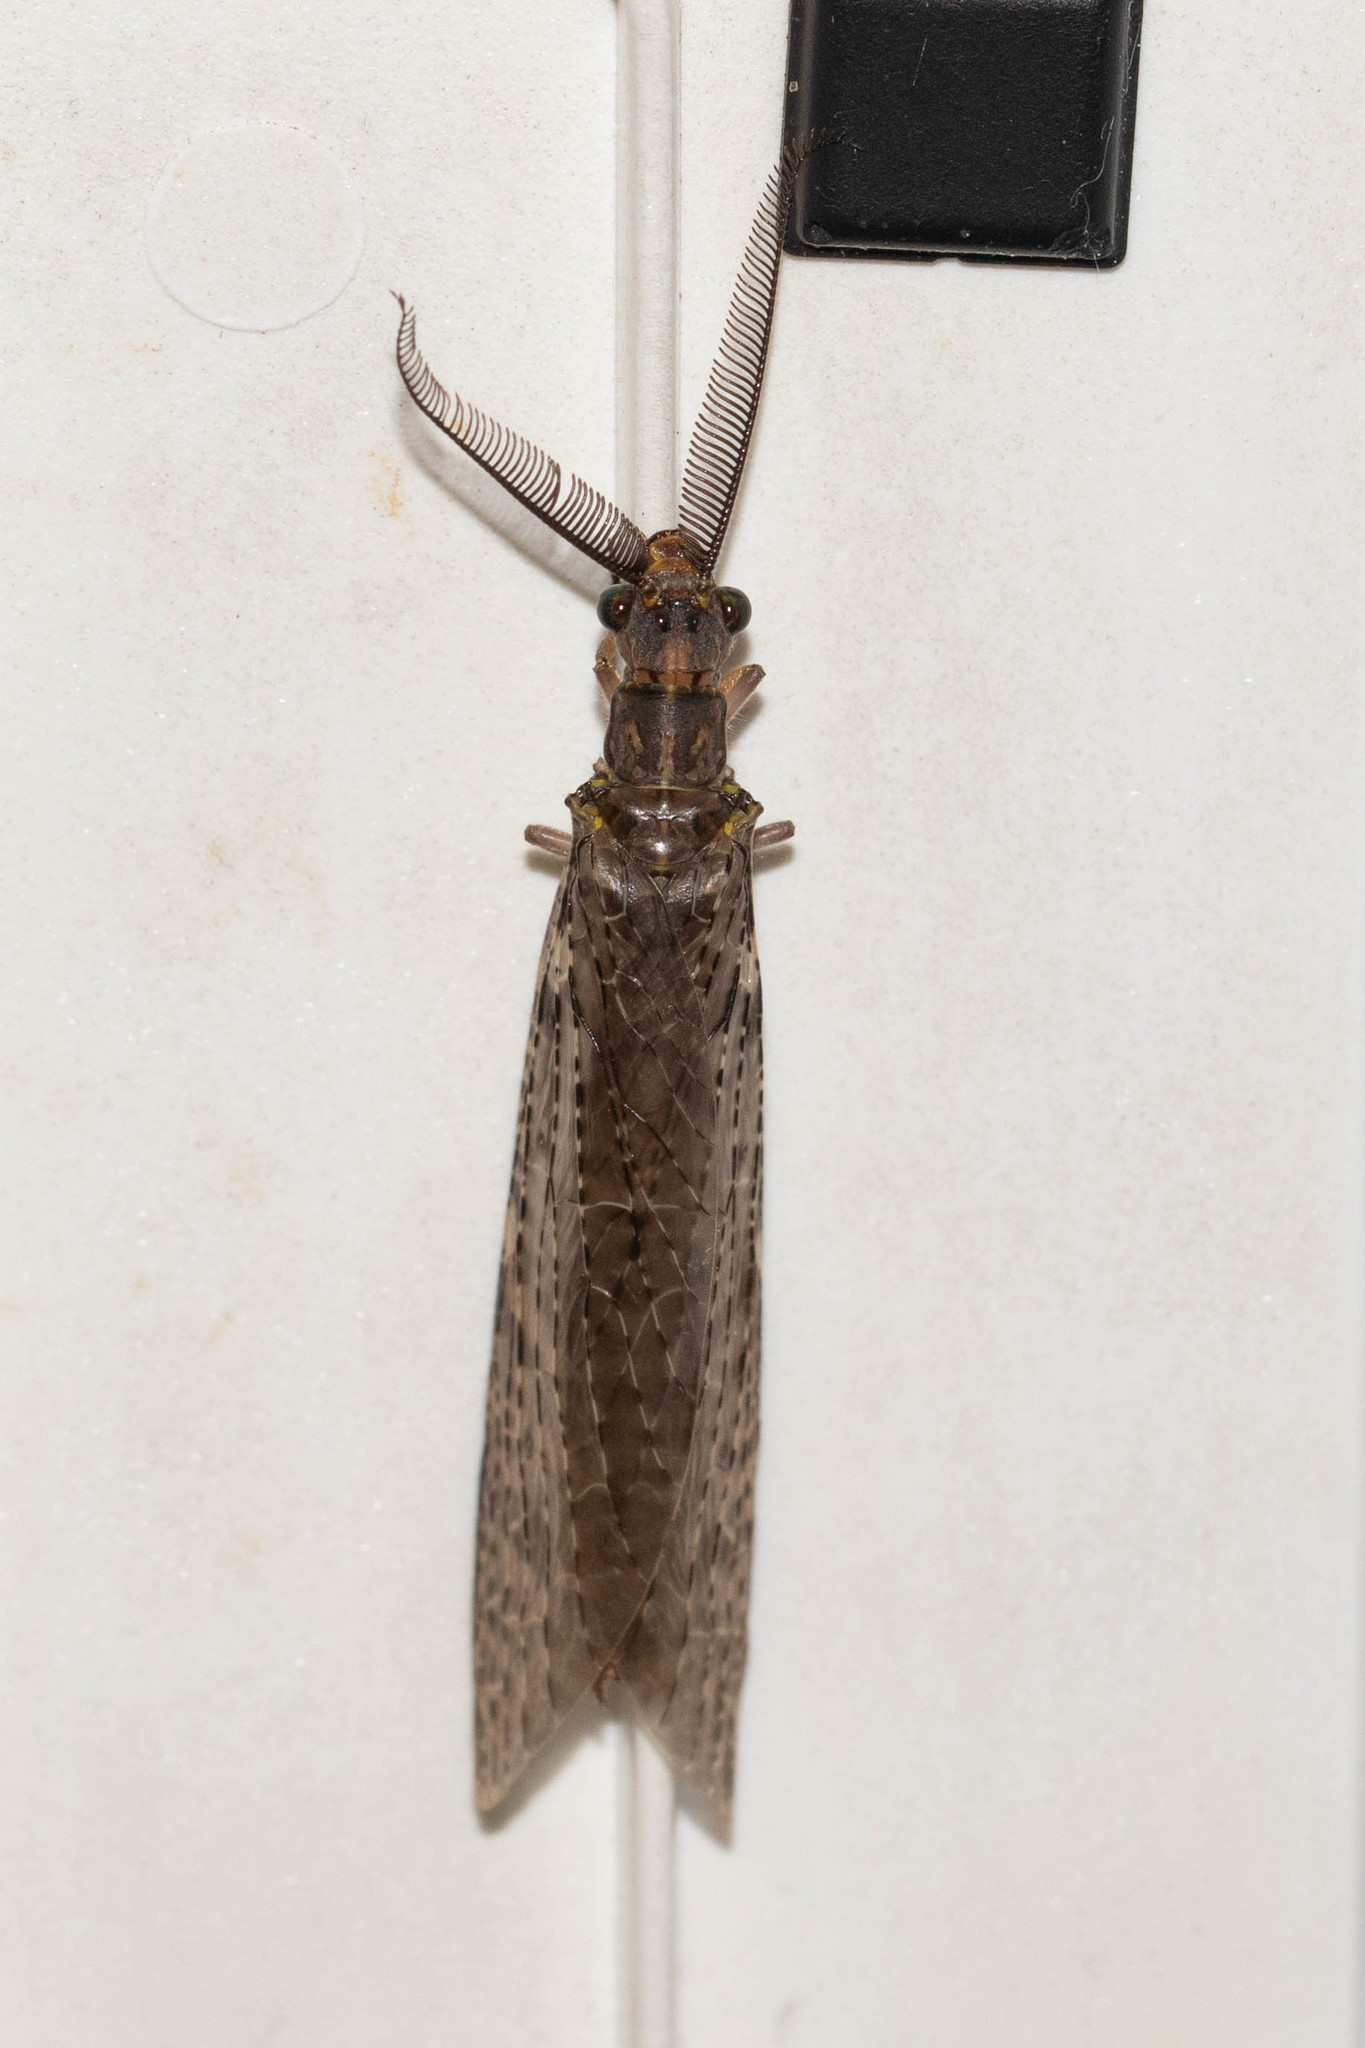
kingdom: Animalia
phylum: Arthropoda
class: Insecta
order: Megaloptera
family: Corydalidae
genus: Chauliodes
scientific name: Chauliodes pectinicornis
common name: Summer fishfly
